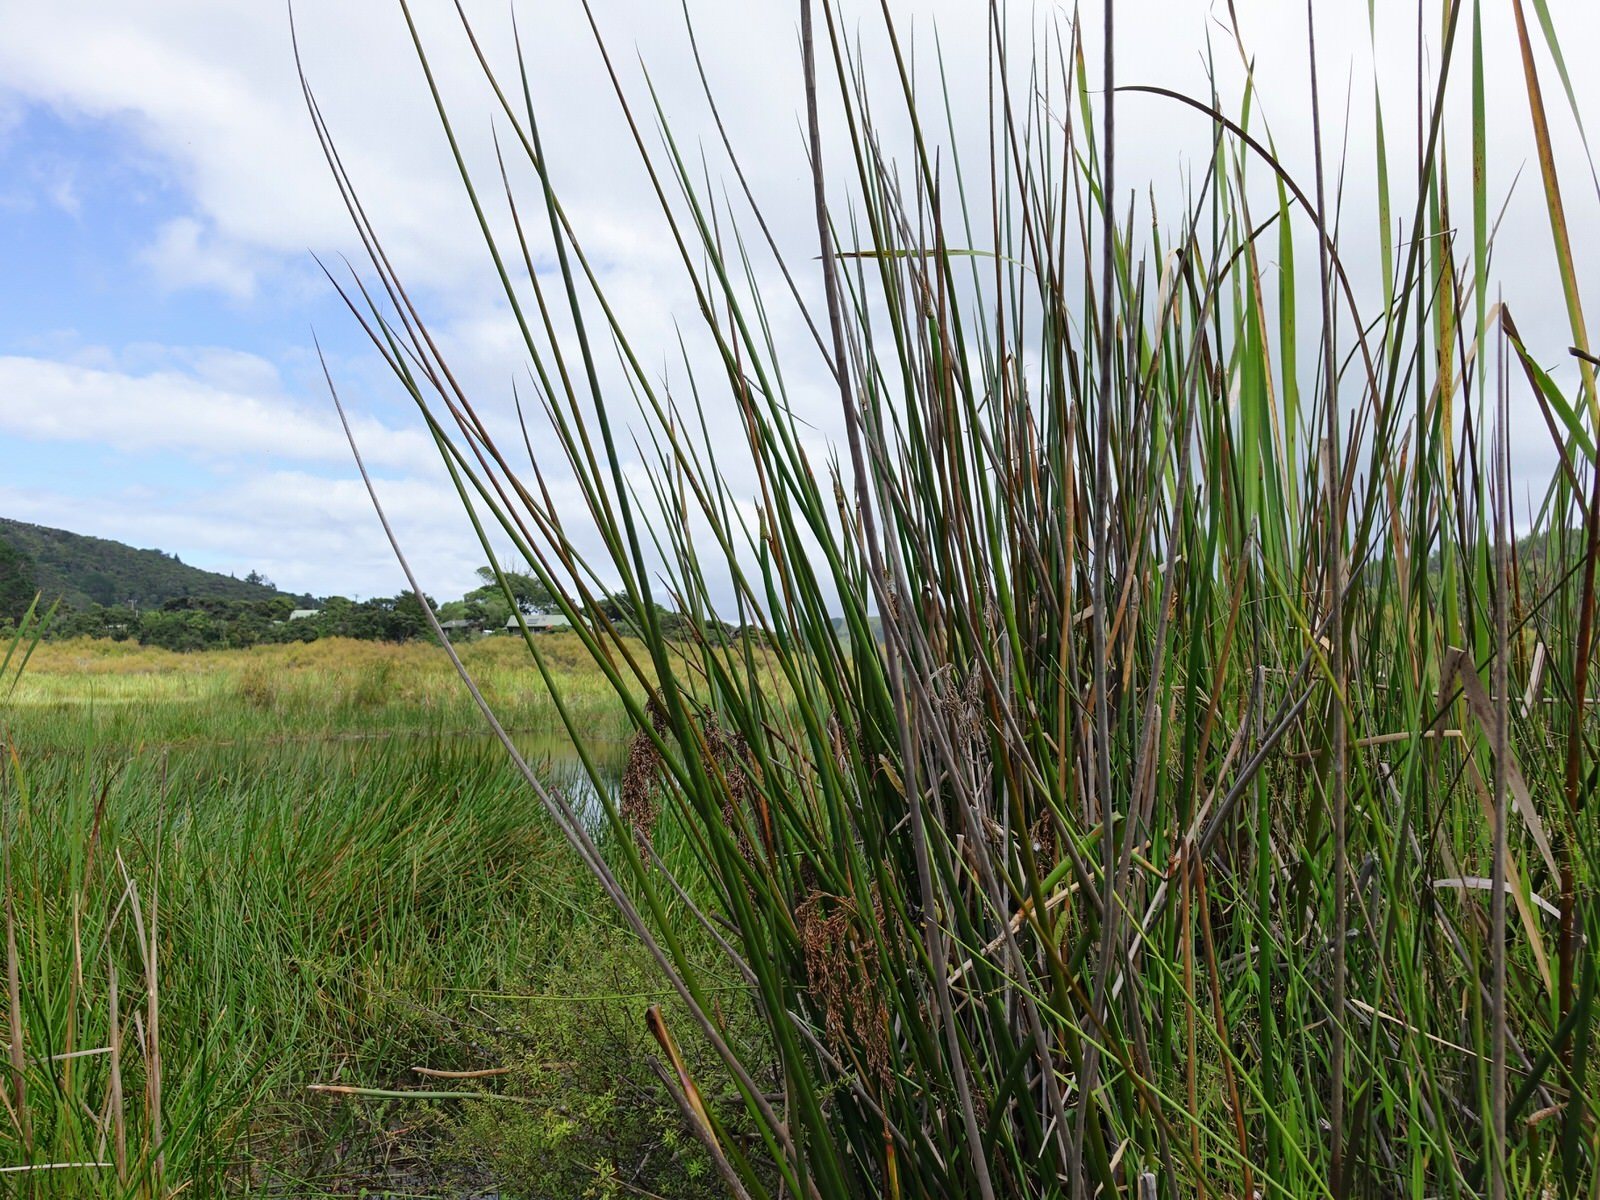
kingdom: Plantae
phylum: Tracheophyta
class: Liliopsida
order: Poales
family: Cyperaceae
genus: Machaerina
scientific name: Machaerina articulata
